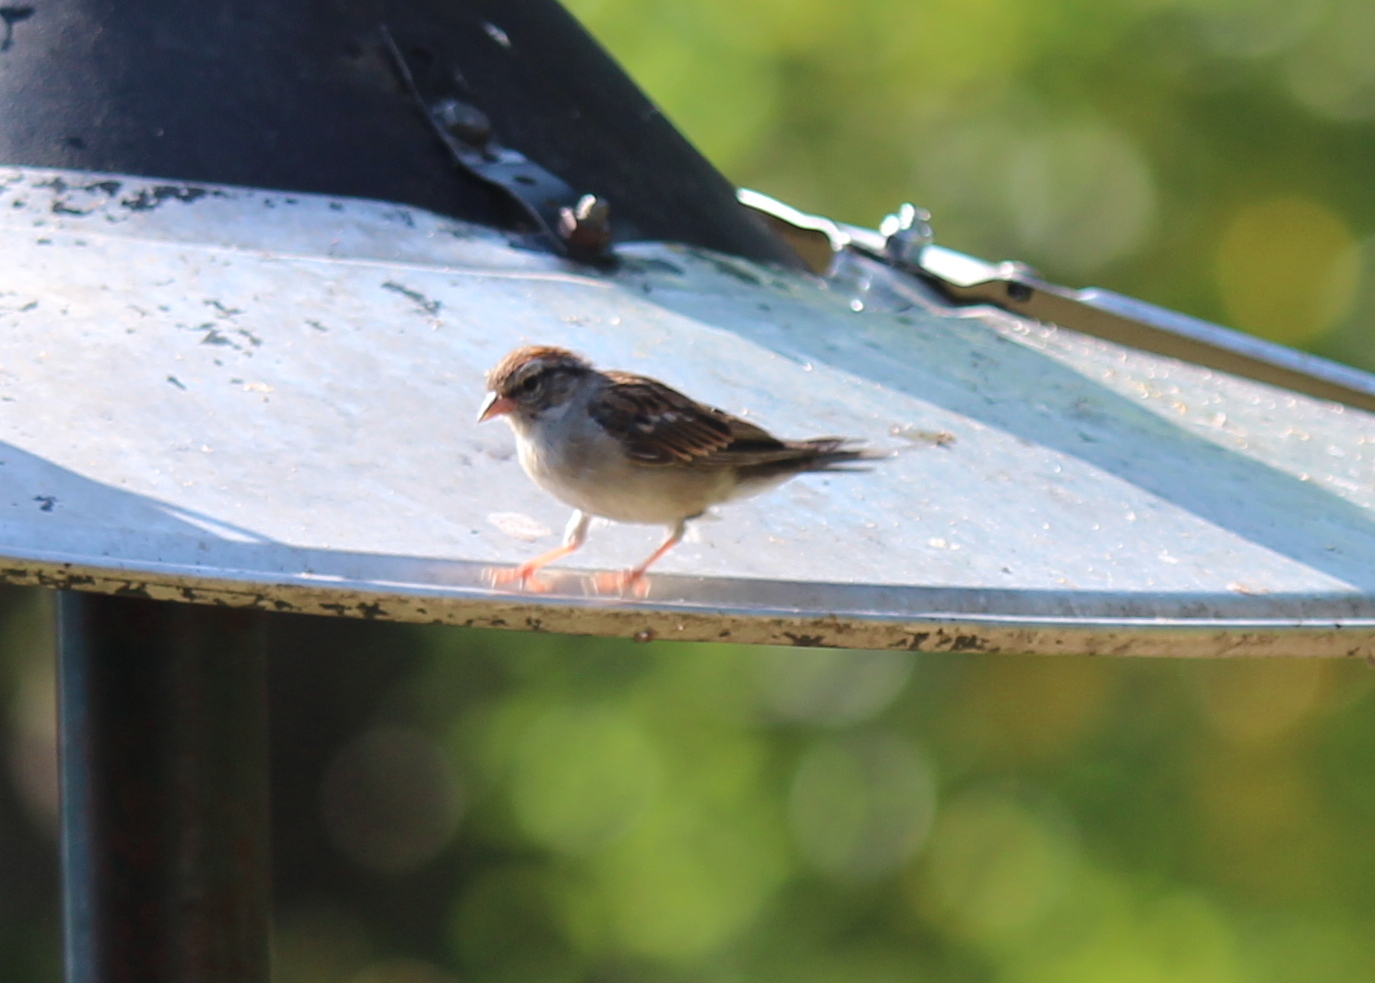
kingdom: Animalia
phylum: Chordata
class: Aves
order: Passeriformes
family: Passerellidae
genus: Spizella
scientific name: Spizella passerina
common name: Chipping sparrow
